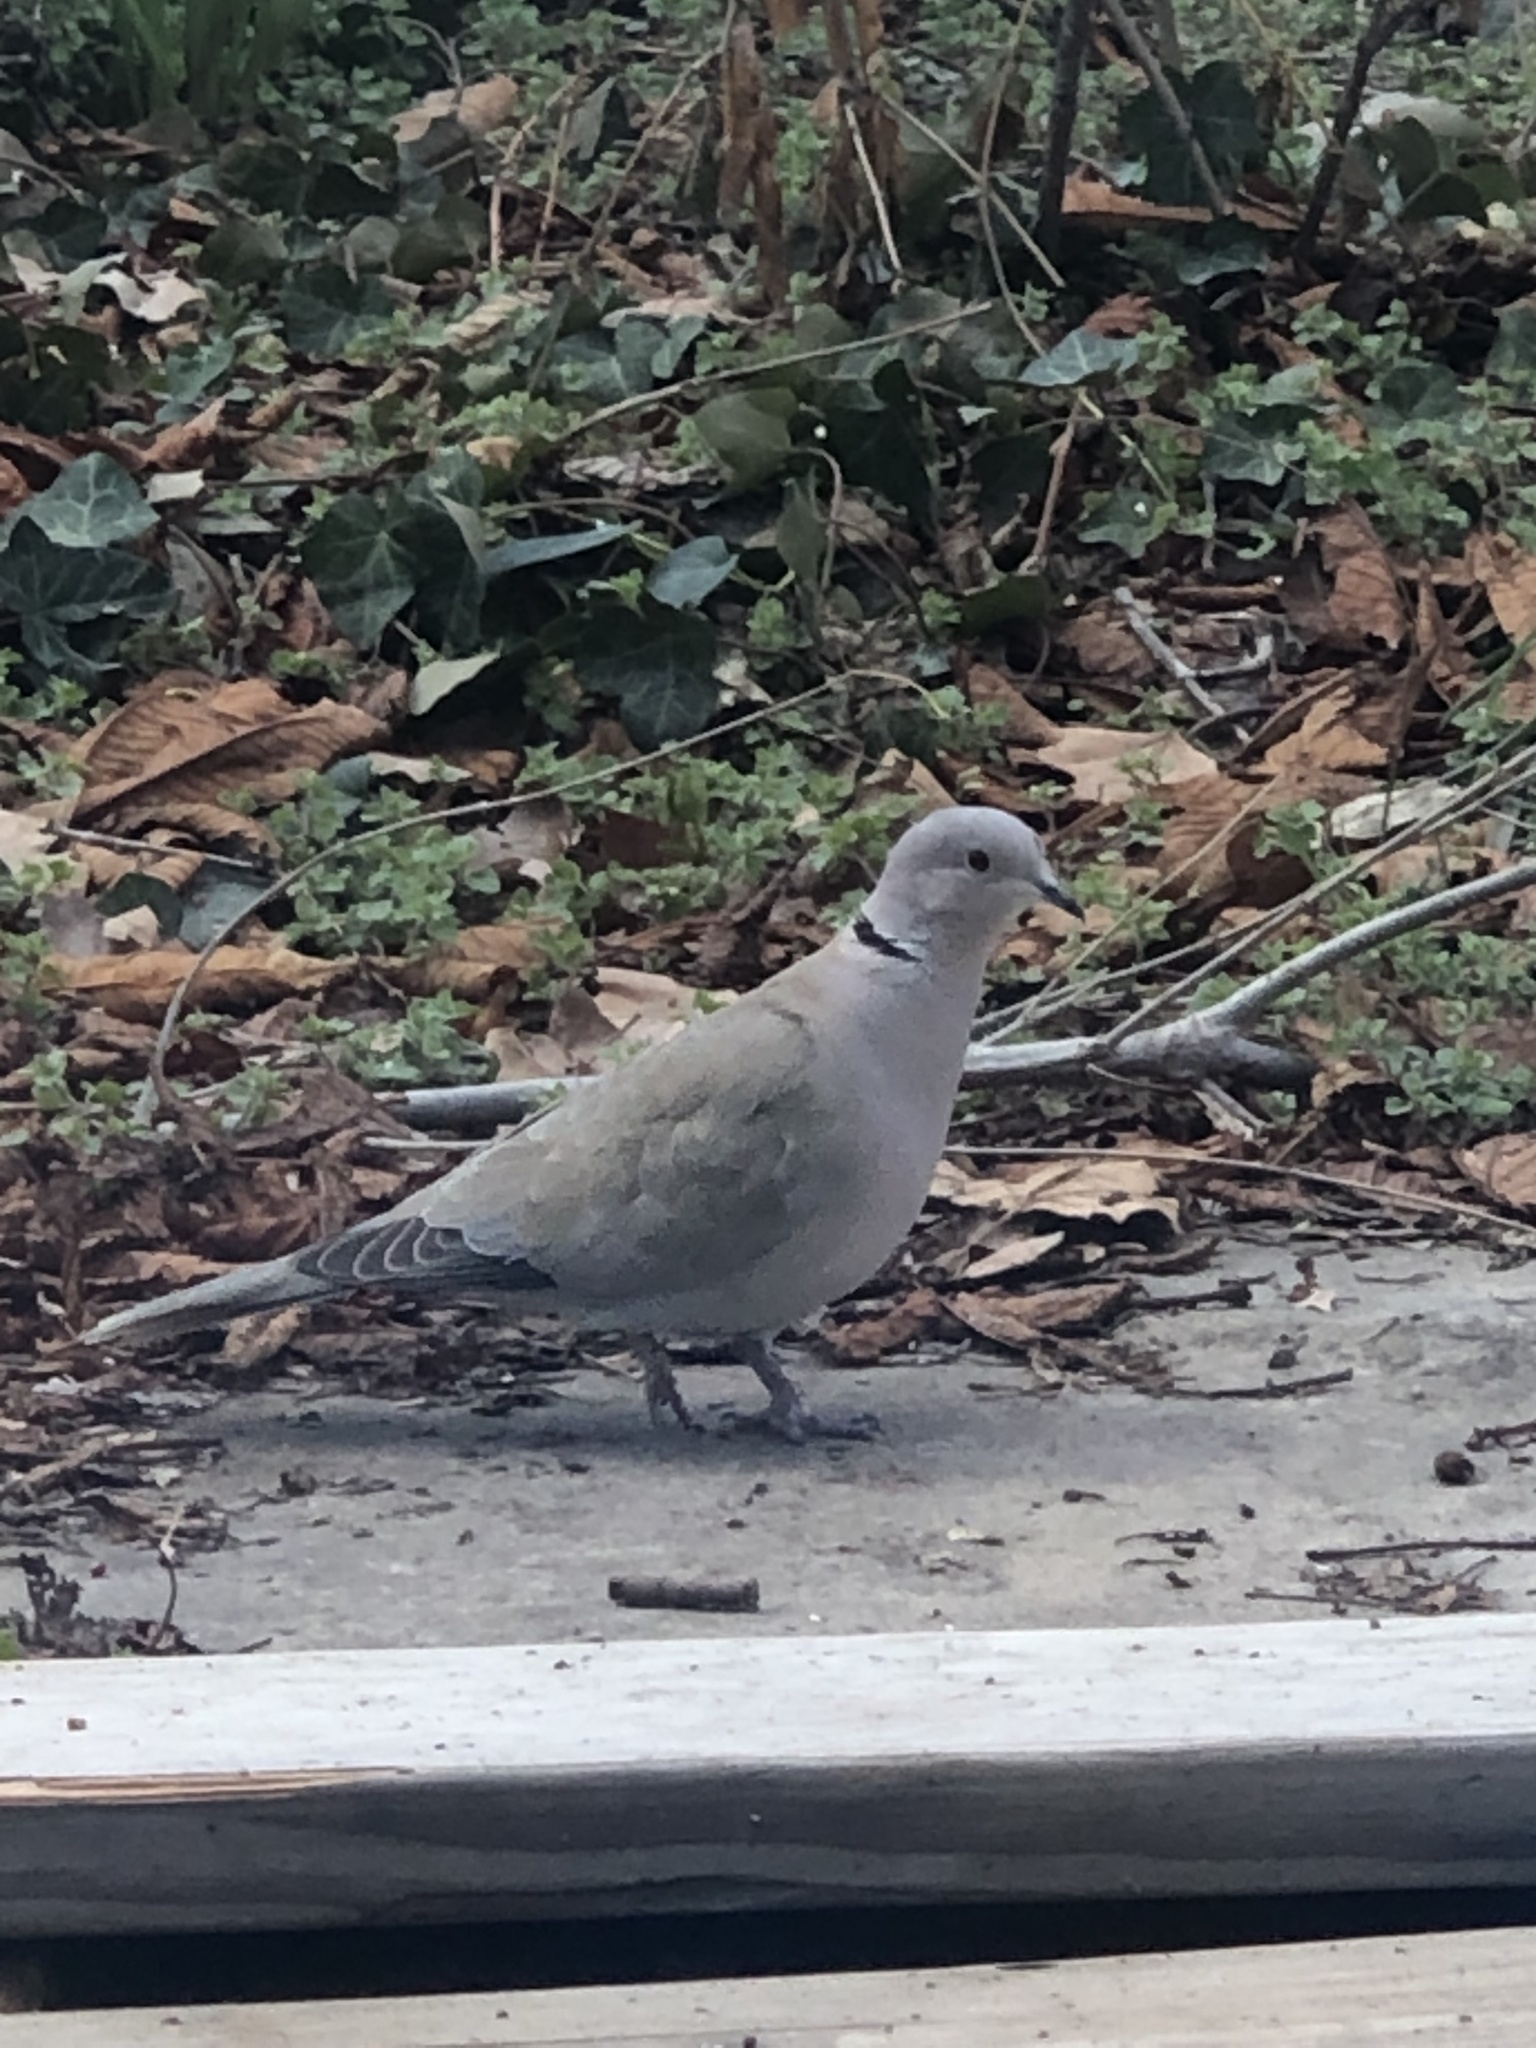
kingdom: Animalia
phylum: Chordata
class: Aves
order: Columbiformes
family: Columbidae
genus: Streptopelia
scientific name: Streptopelia decaocto
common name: Eurasian collared dove
